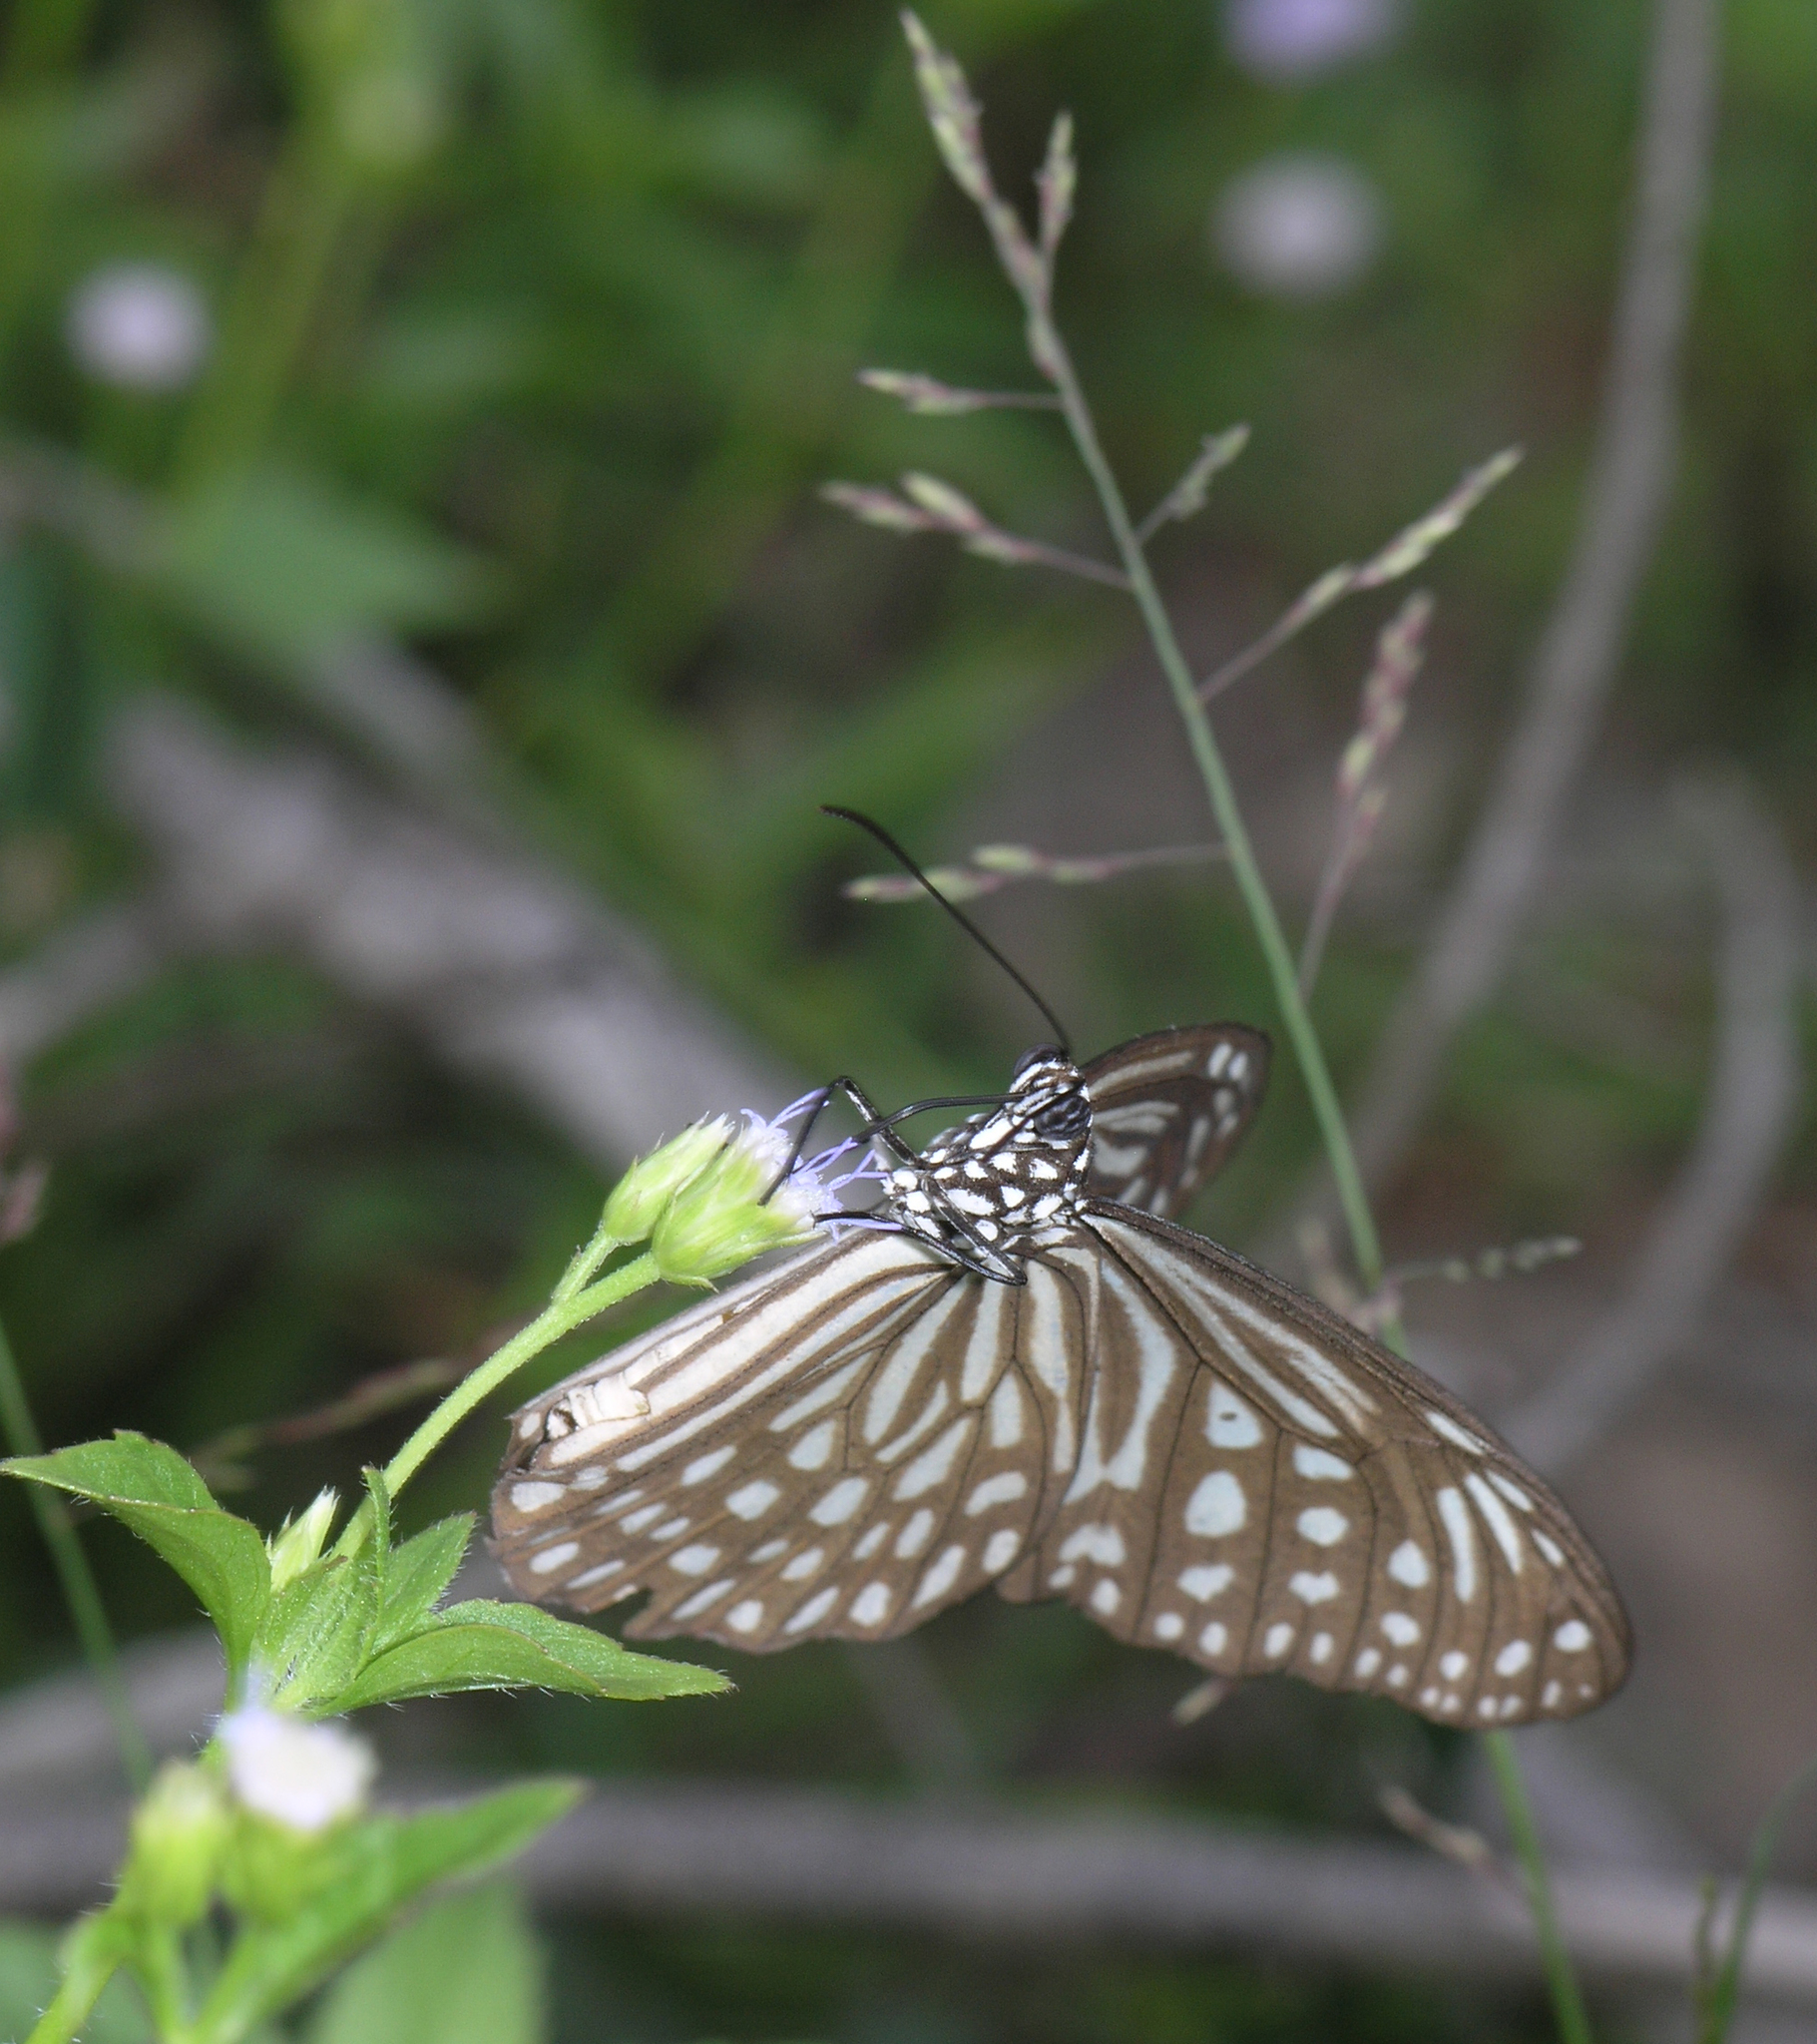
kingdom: Animalia
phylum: Arthropoda
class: Insecta
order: Lepidoptera
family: Nymphalidae
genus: Parantica
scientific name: Parantica agleoides
